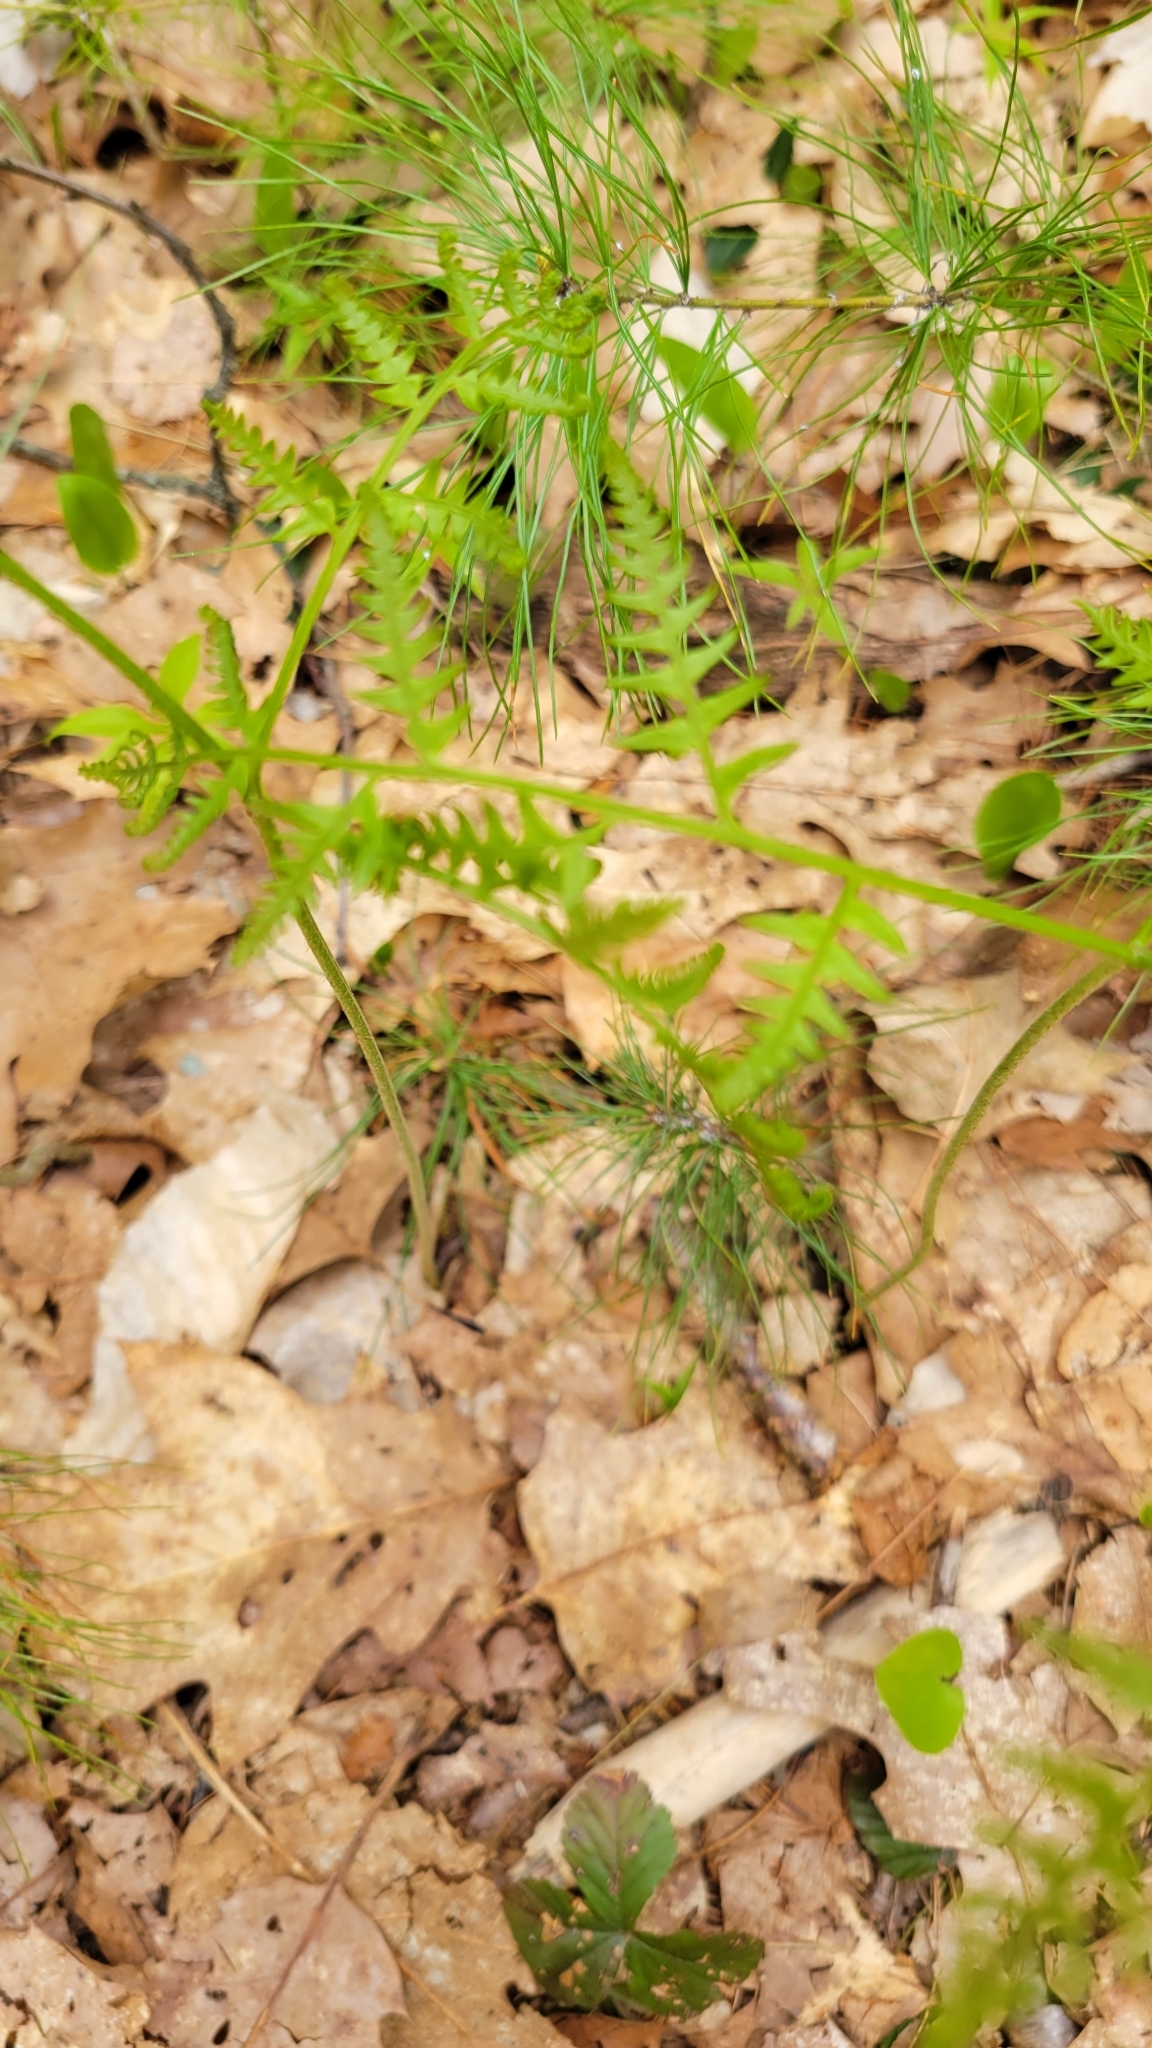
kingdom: Plantae
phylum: Tracheophyta
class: Polypodiopsida
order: Polypodiales
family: Dennstaedtiaceae
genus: Pteridium
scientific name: Pteridium aquilinum
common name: Bracken
